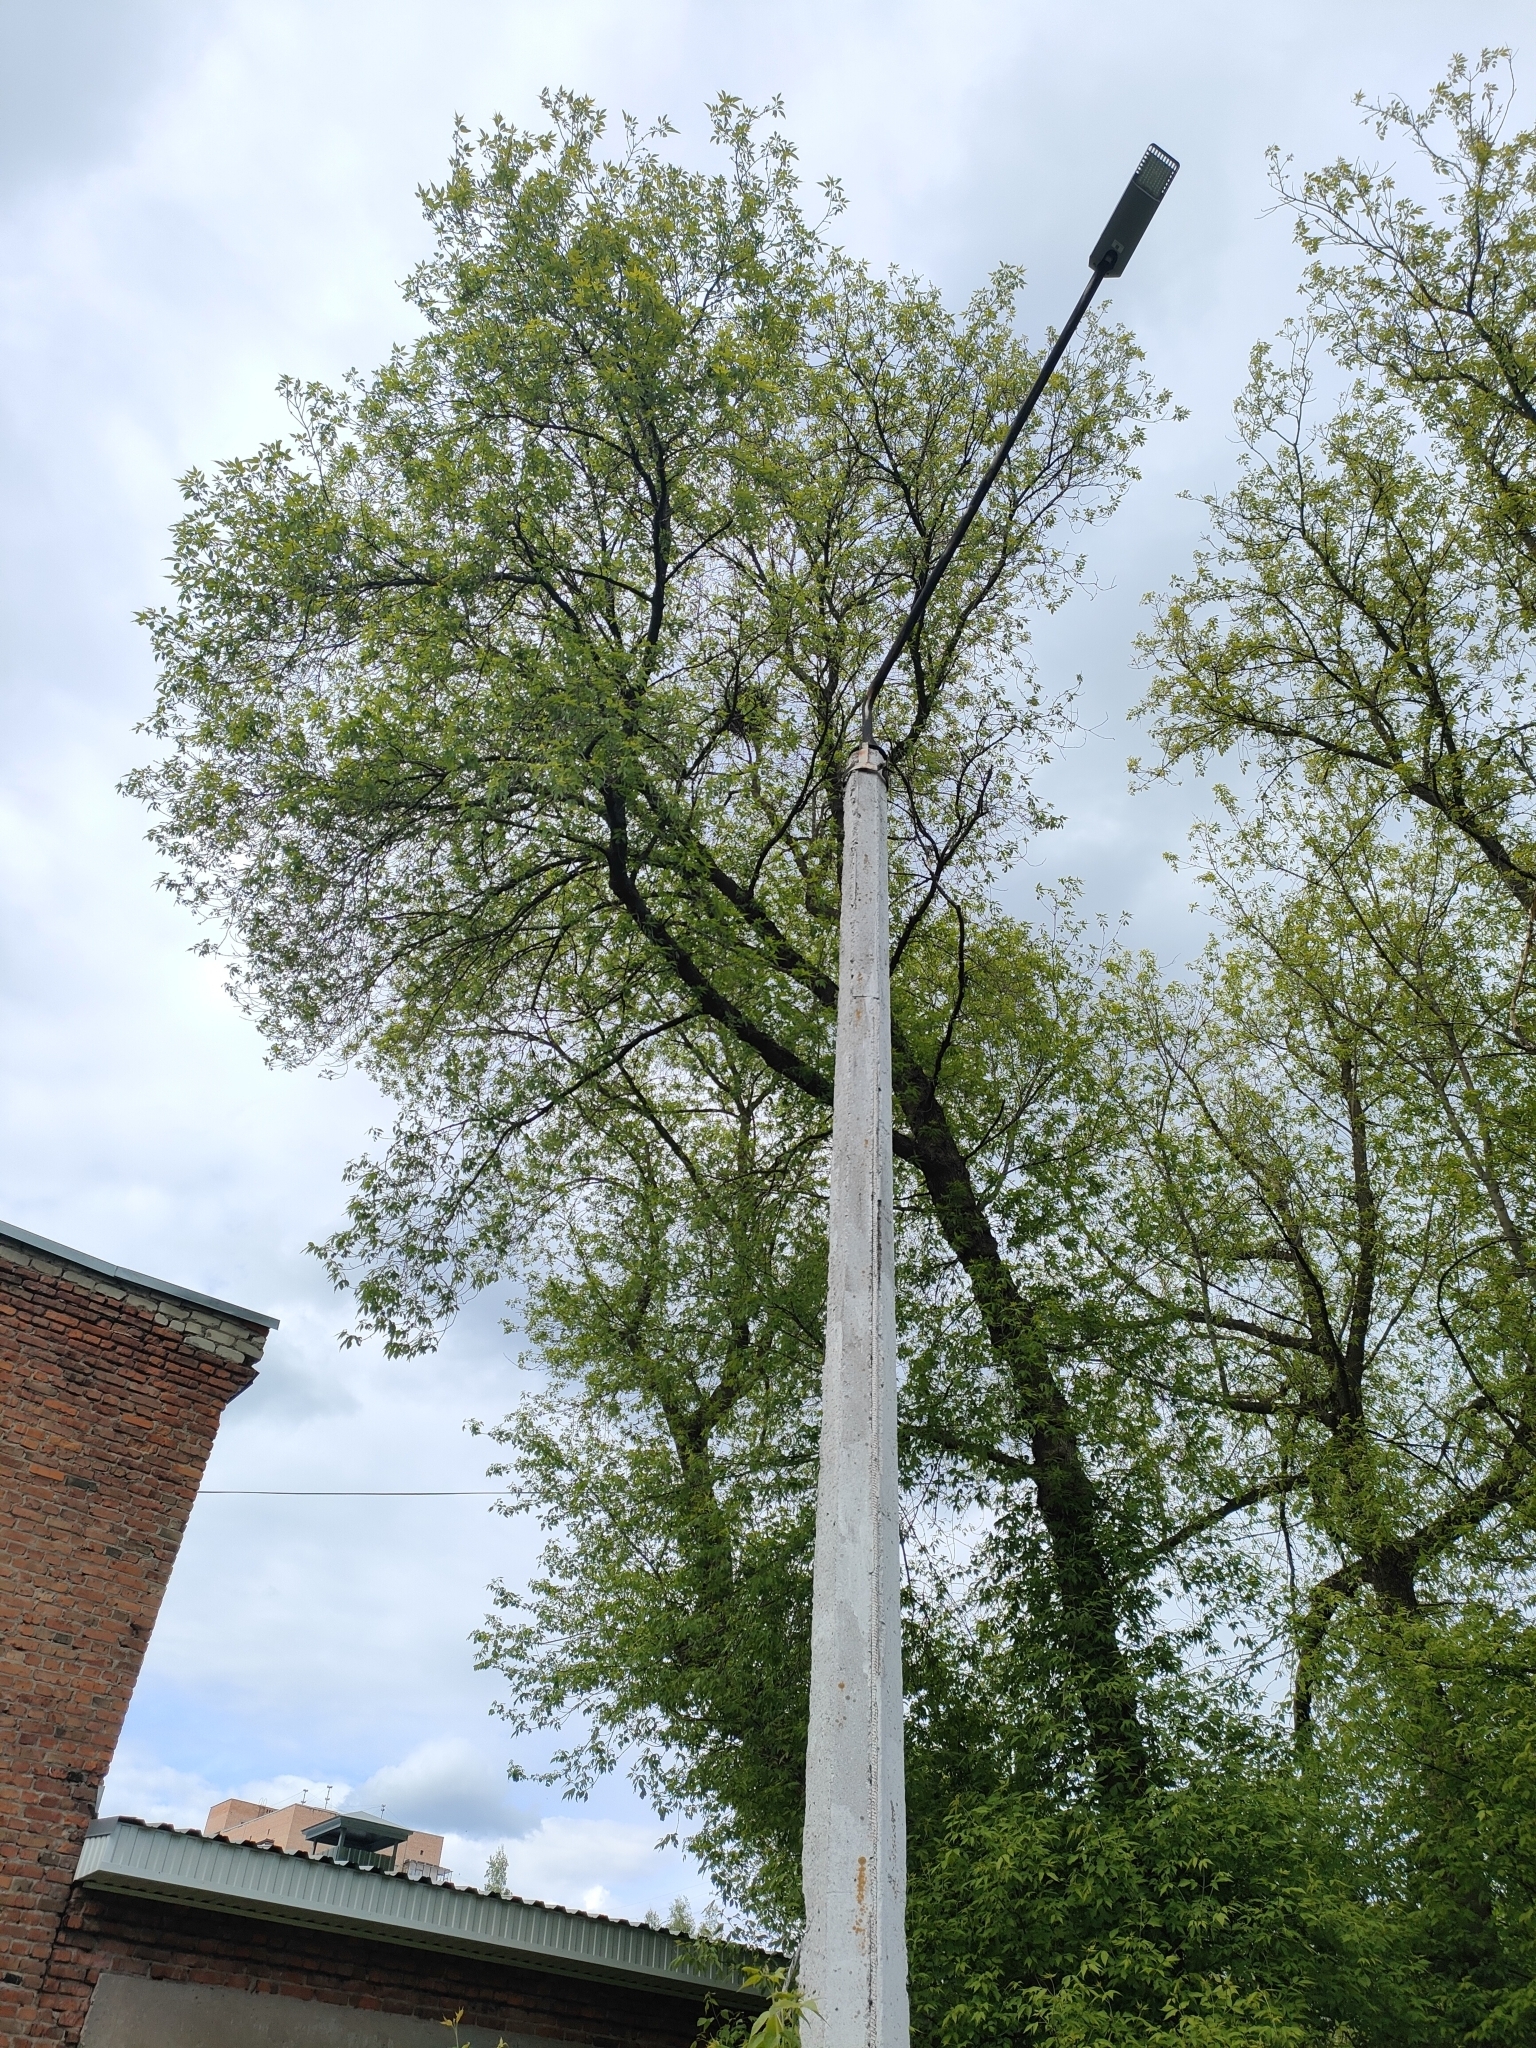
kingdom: Animalia
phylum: Chordata
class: Aves
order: Passeriformes
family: Corvidae
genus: Pica
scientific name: Pica pica
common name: Eurasian magpie
